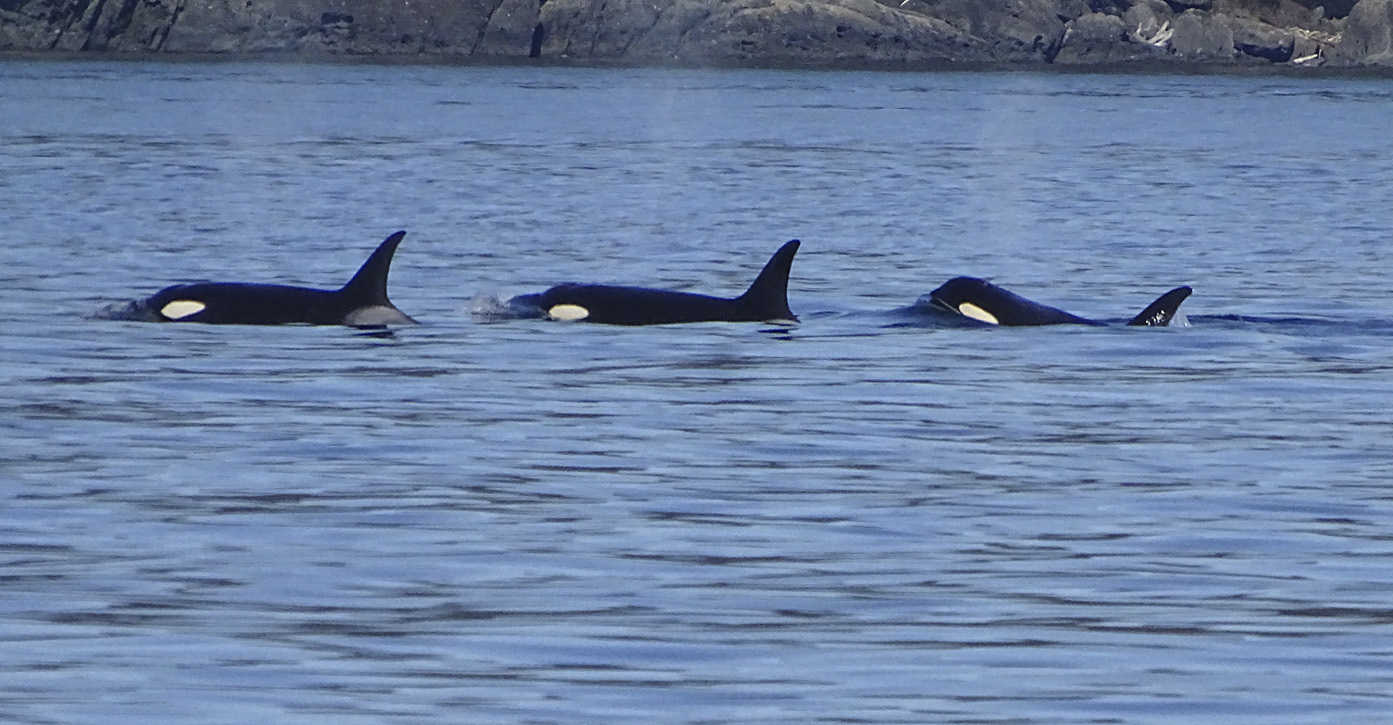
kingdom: Animalia
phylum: Chordata
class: Mammalia
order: Cetacea
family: Delphinidae
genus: Orcinus
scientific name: Orcinus orca
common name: Killer whale
